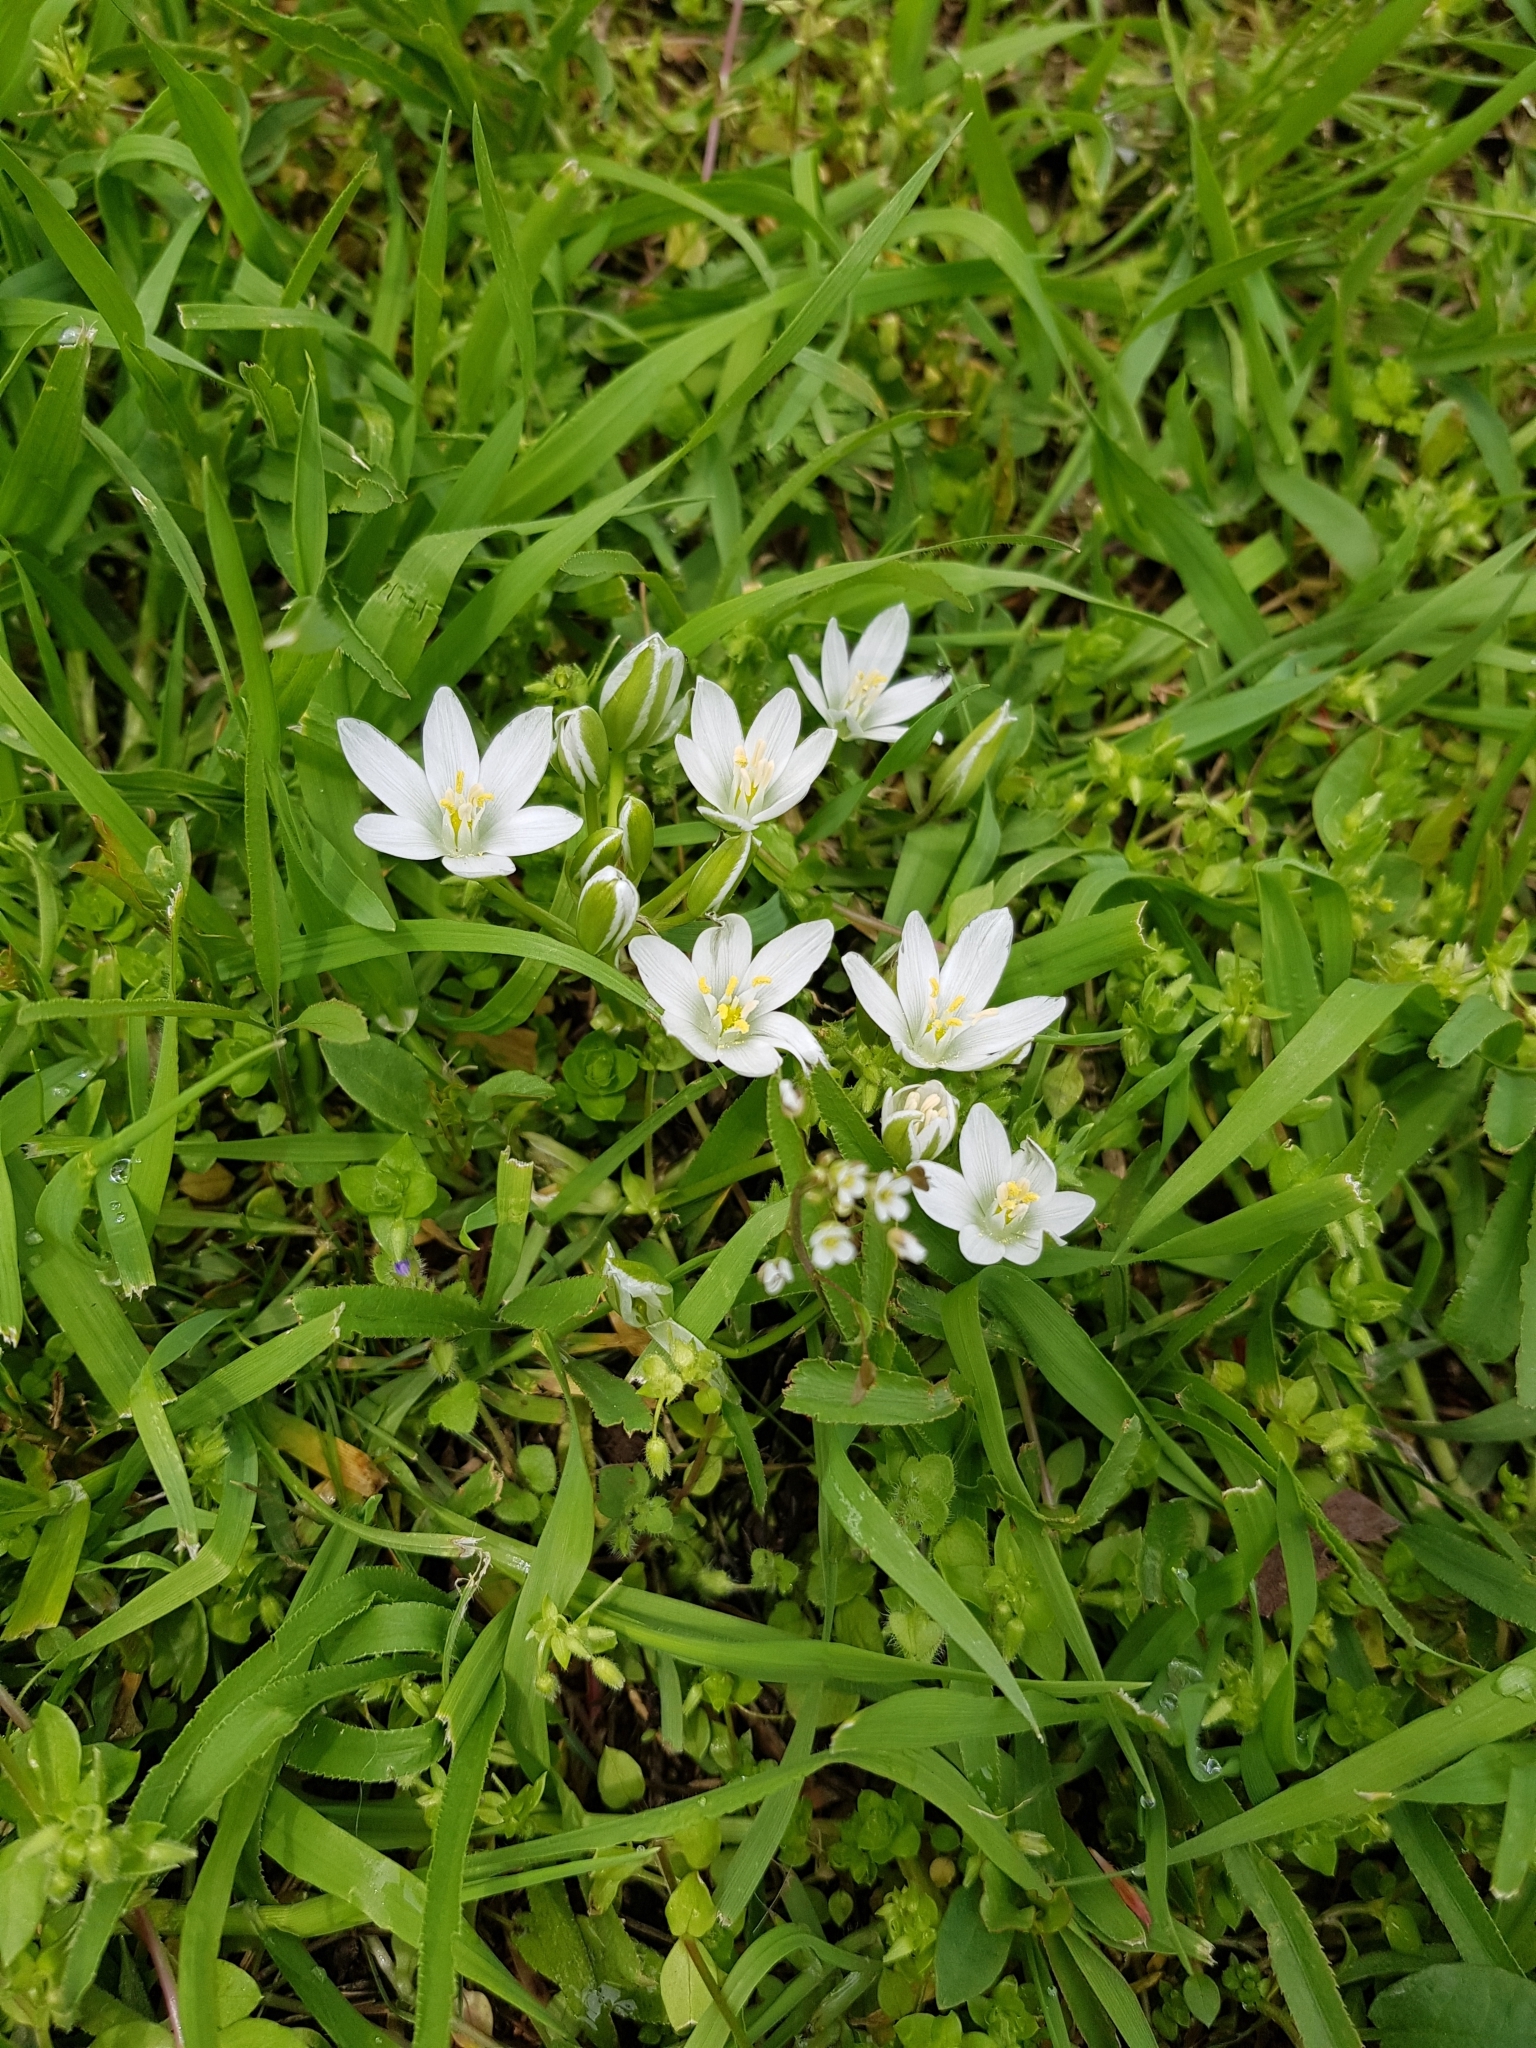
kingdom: Plantae
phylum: Tracheophyta
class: Liliopsida
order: Asparagales
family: Asparagaceae
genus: Ornithogalum
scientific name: Ornithogalum umbellatum
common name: Garden star-of-bethlehem
